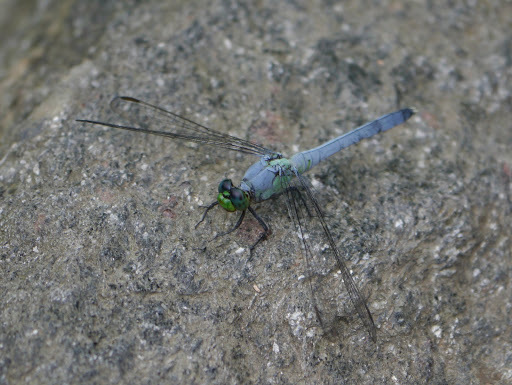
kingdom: Animalia
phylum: Arthropoda
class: Insecta
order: Odonata
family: Libellulidae
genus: Erythemis
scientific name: Erythemis simplicicollis
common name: Eastern pondhawk
